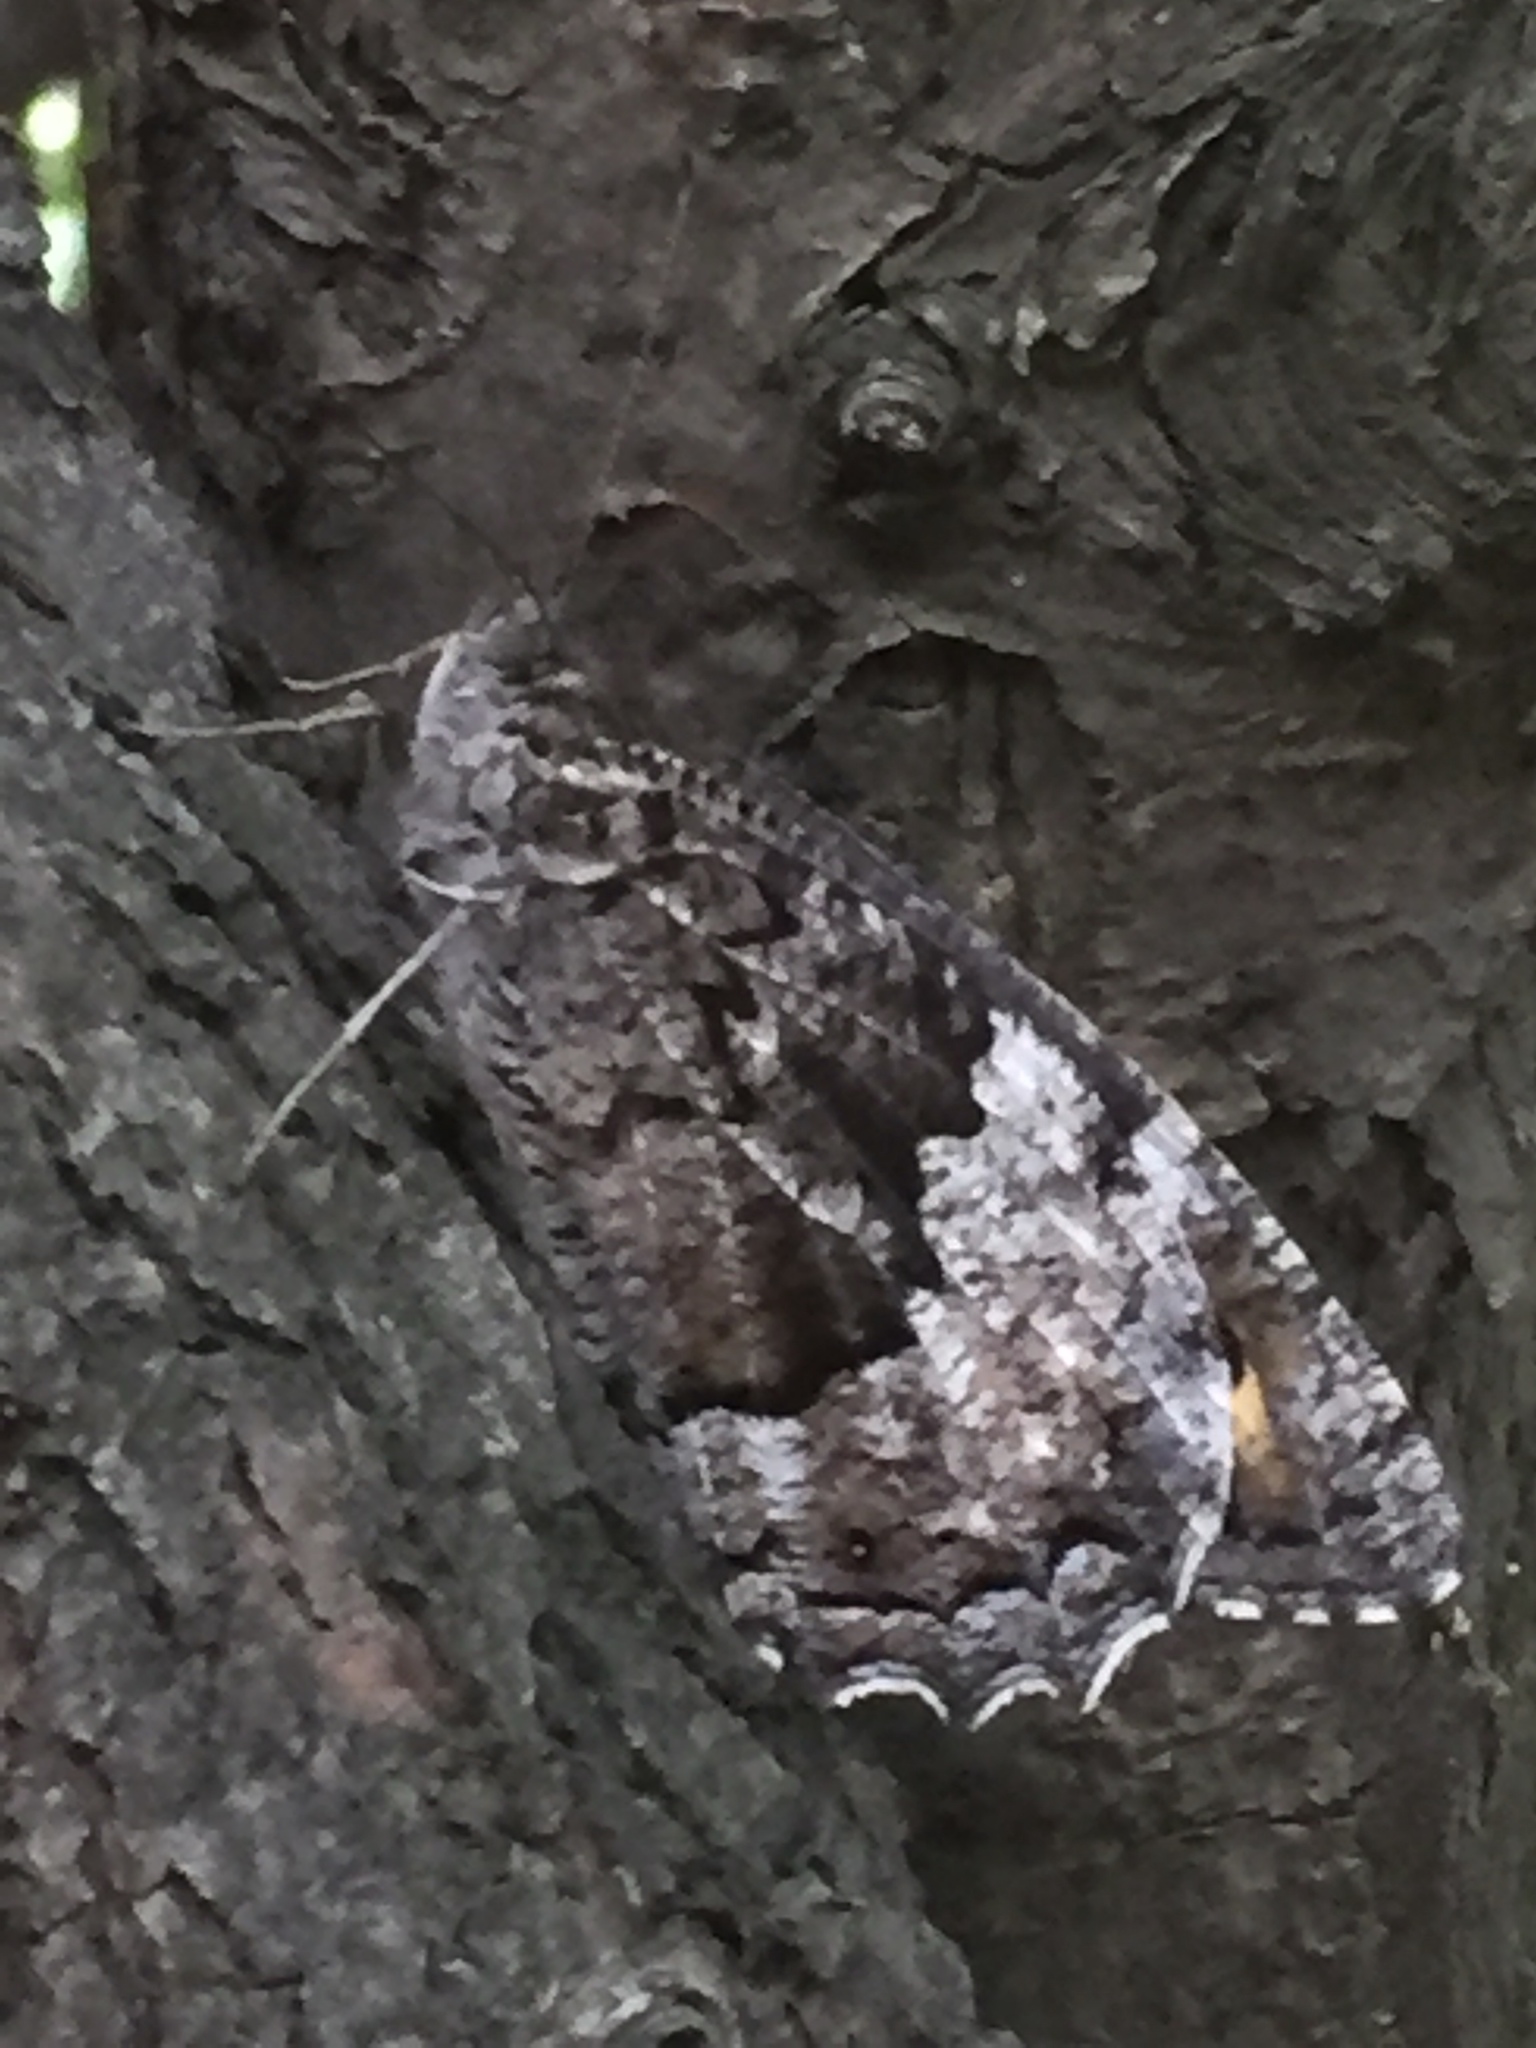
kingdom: Animalia
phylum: Arthropoda
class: Insecta
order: Lepidoptera
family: Nymphalidae
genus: Hipparchia
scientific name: Hipparchia syriaca
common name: Eastern rock grayling
